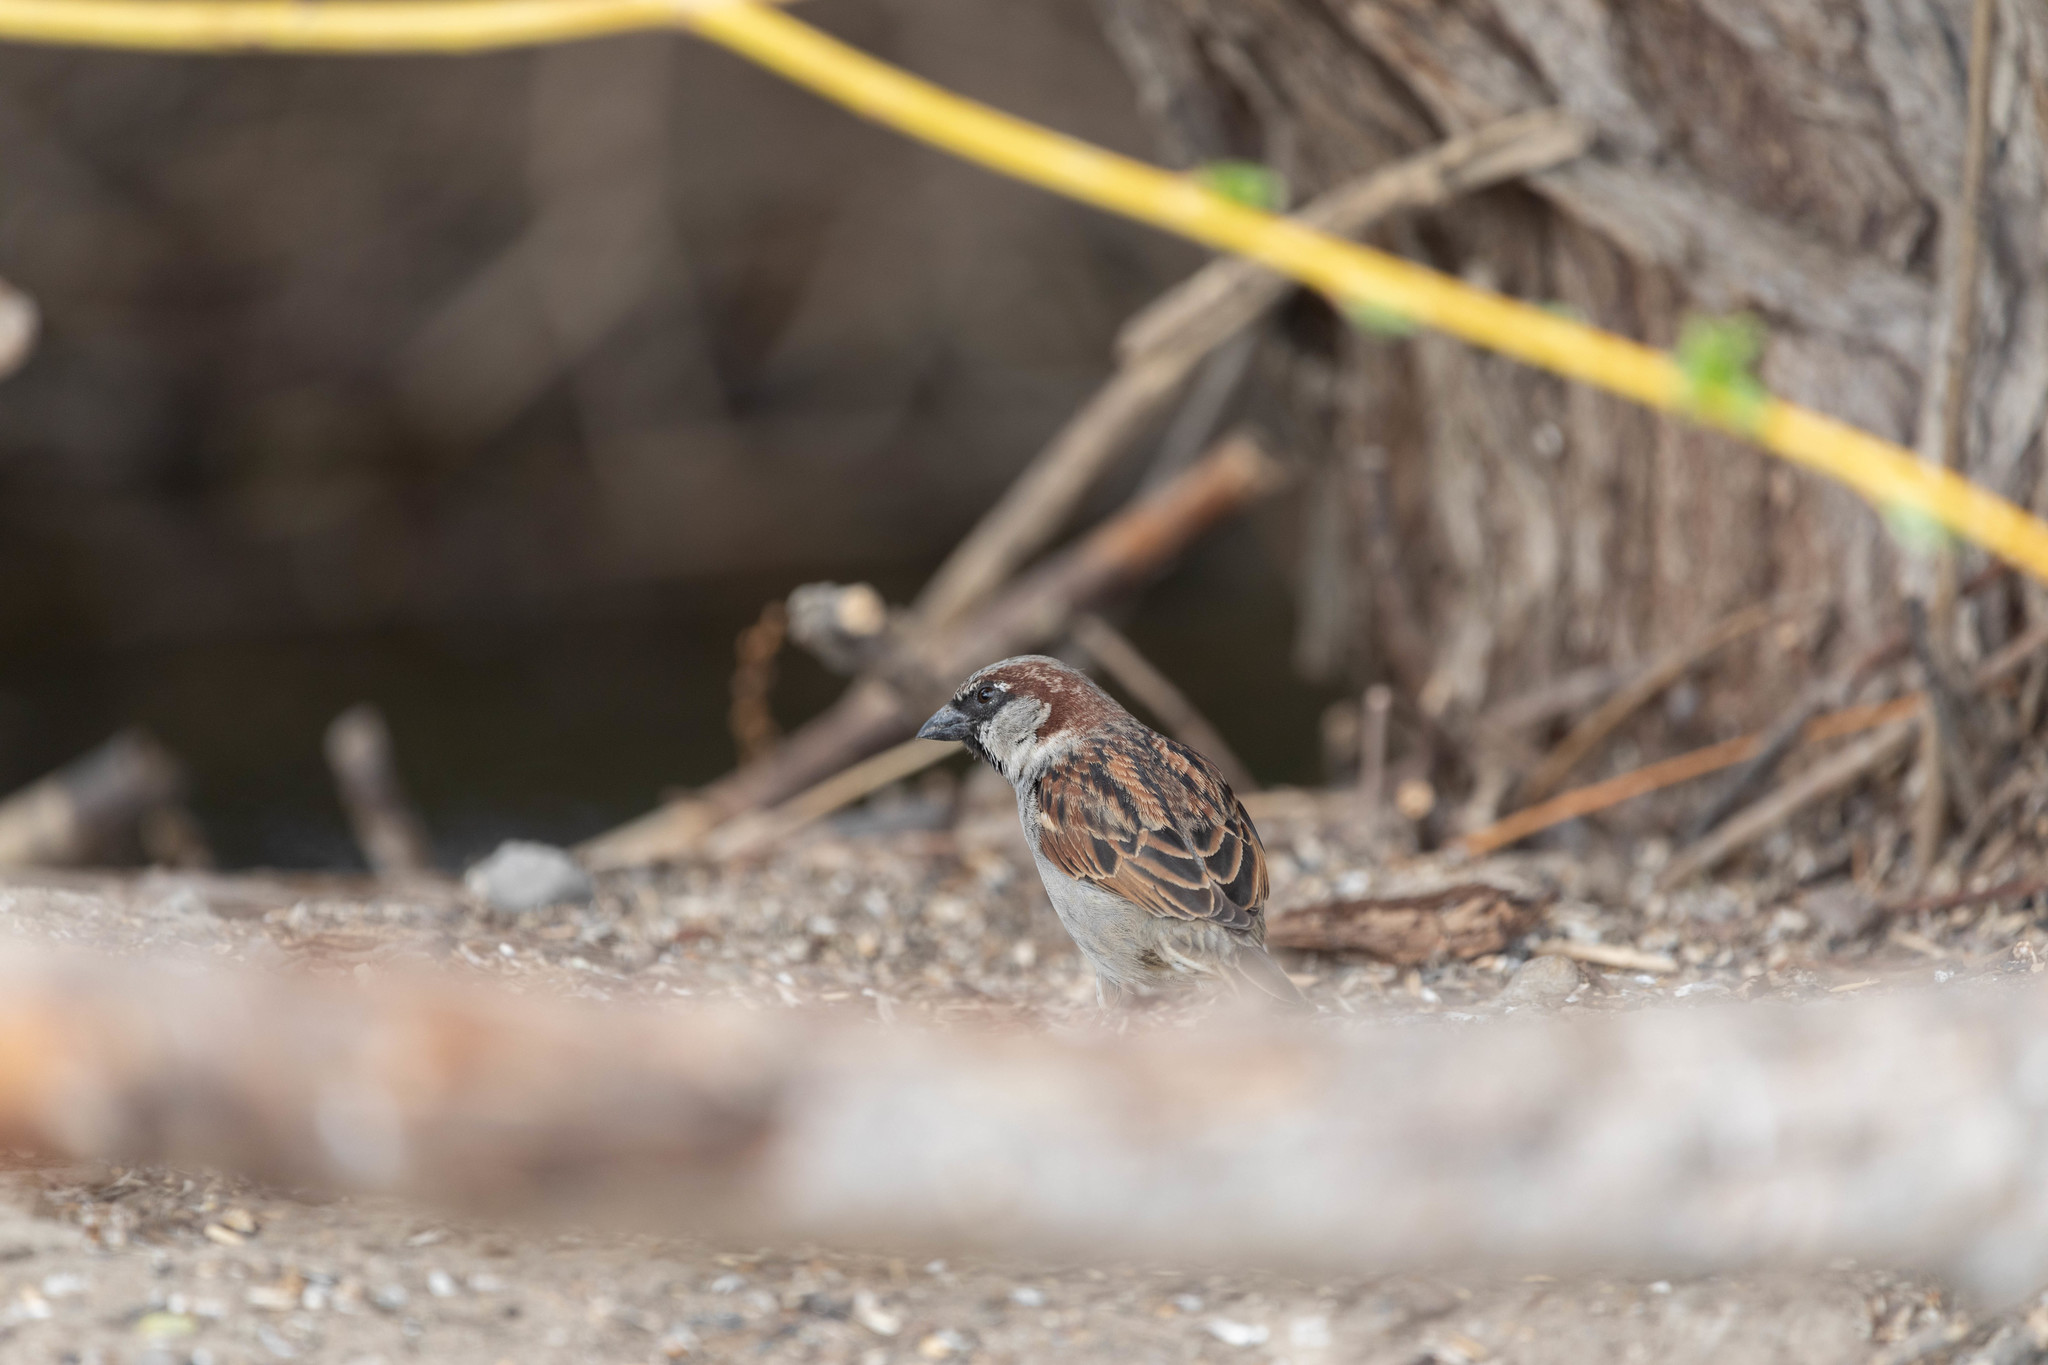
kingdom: Animalia
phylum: Chordata
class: Aves
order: Passeriformes
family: Passeridae
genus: Passer
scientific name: Passer domesticus
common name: House sparrow
